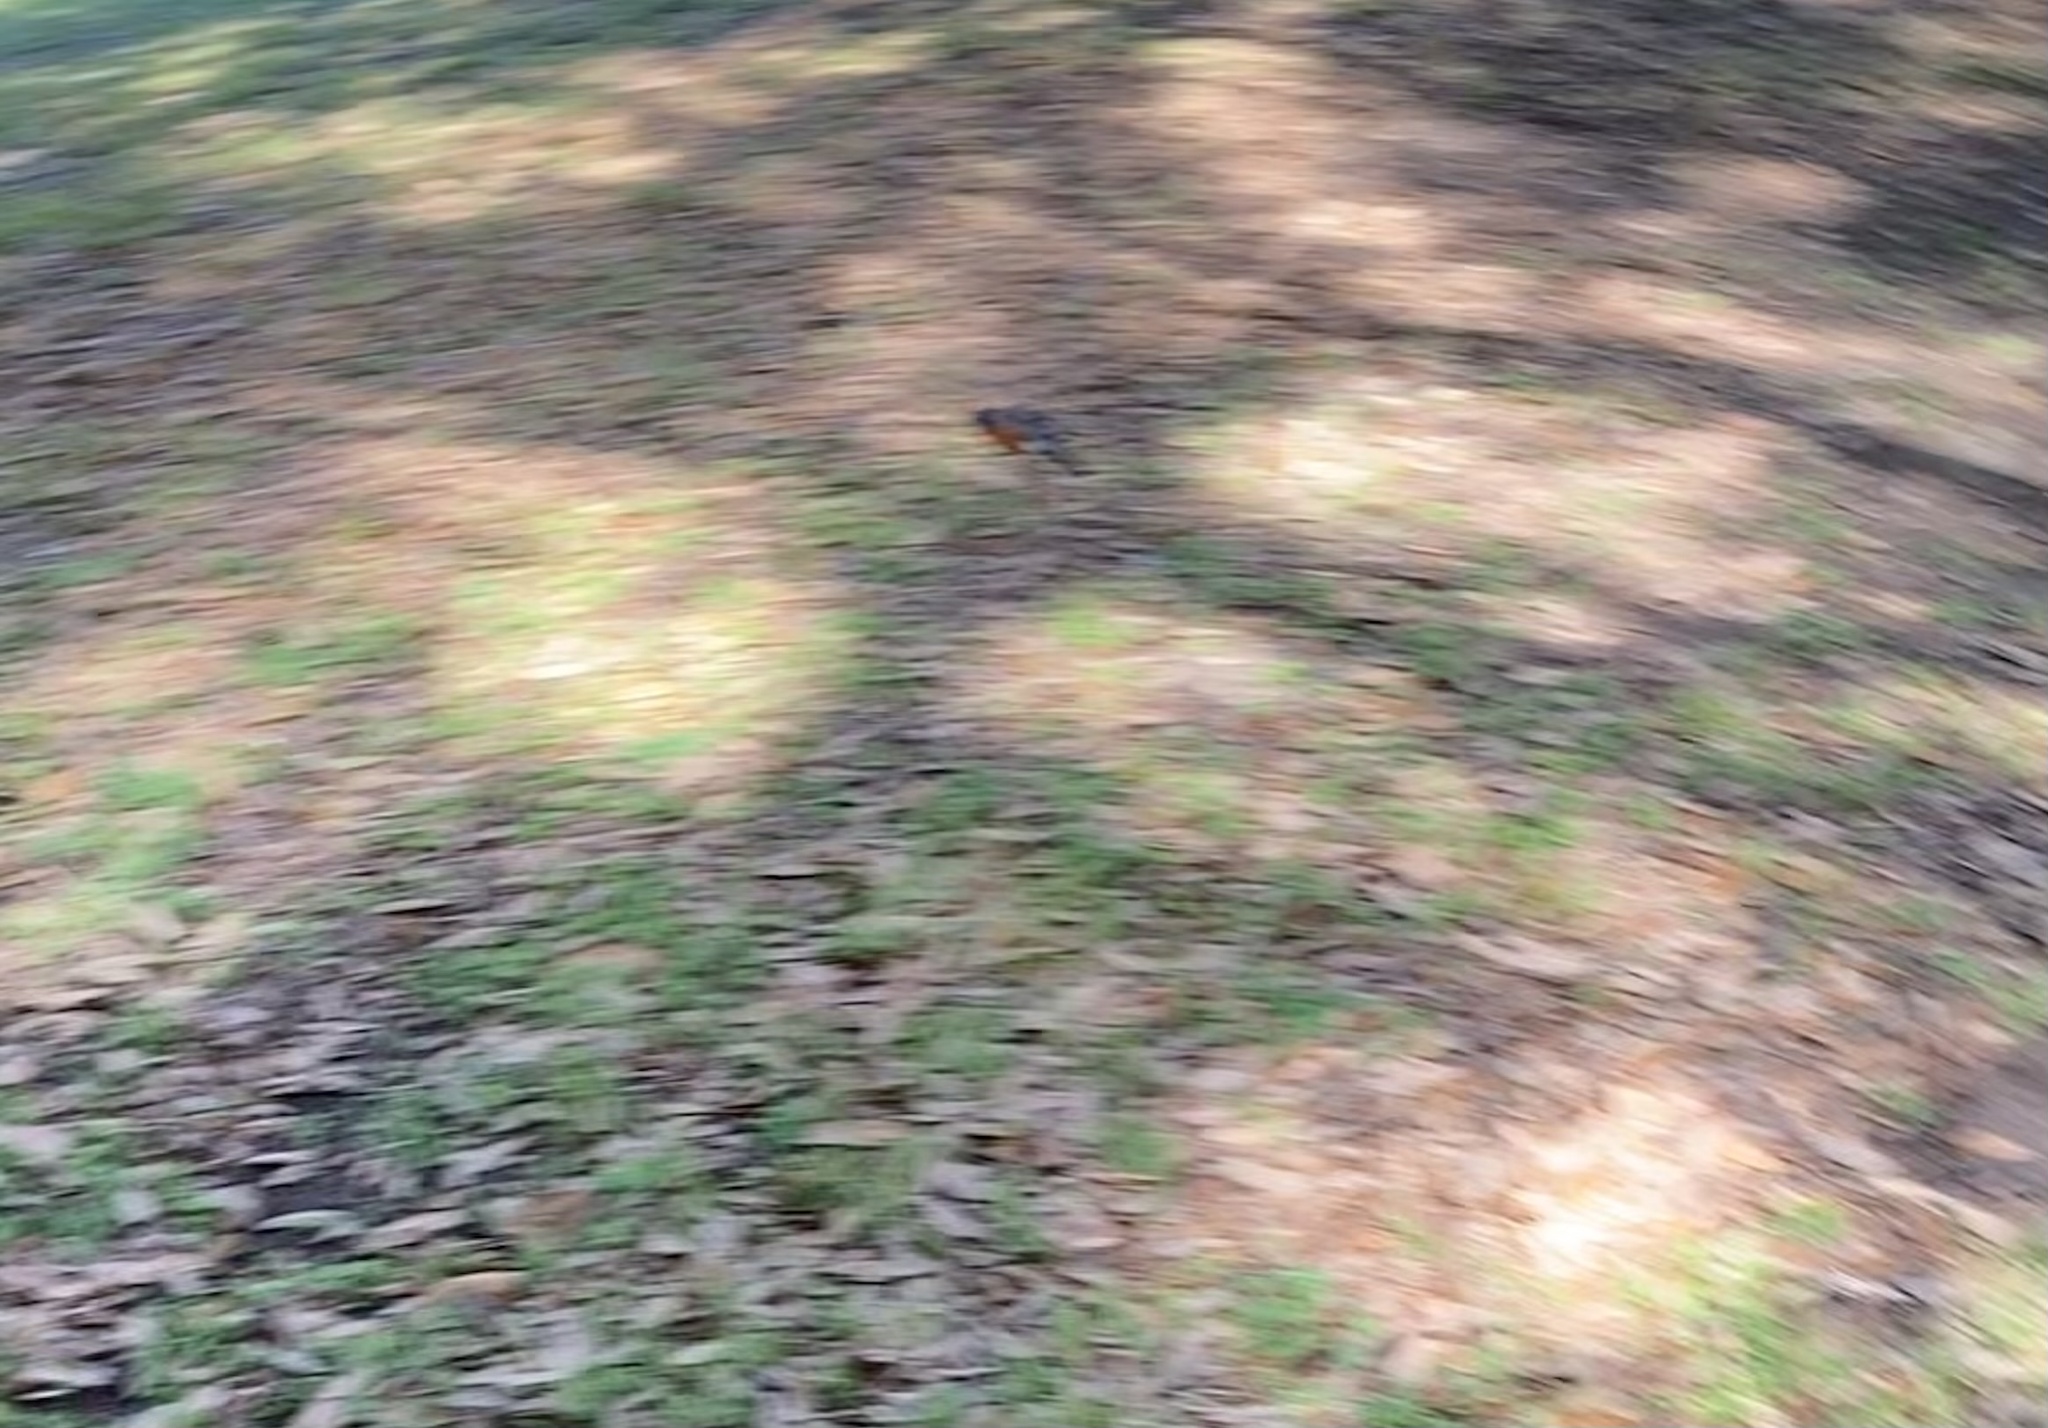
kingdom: Animalia
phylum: Chordata
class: Aves
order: Passeriformes
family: Turdidae
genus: Turdus
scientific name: Turdus migratorius
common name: American robin
